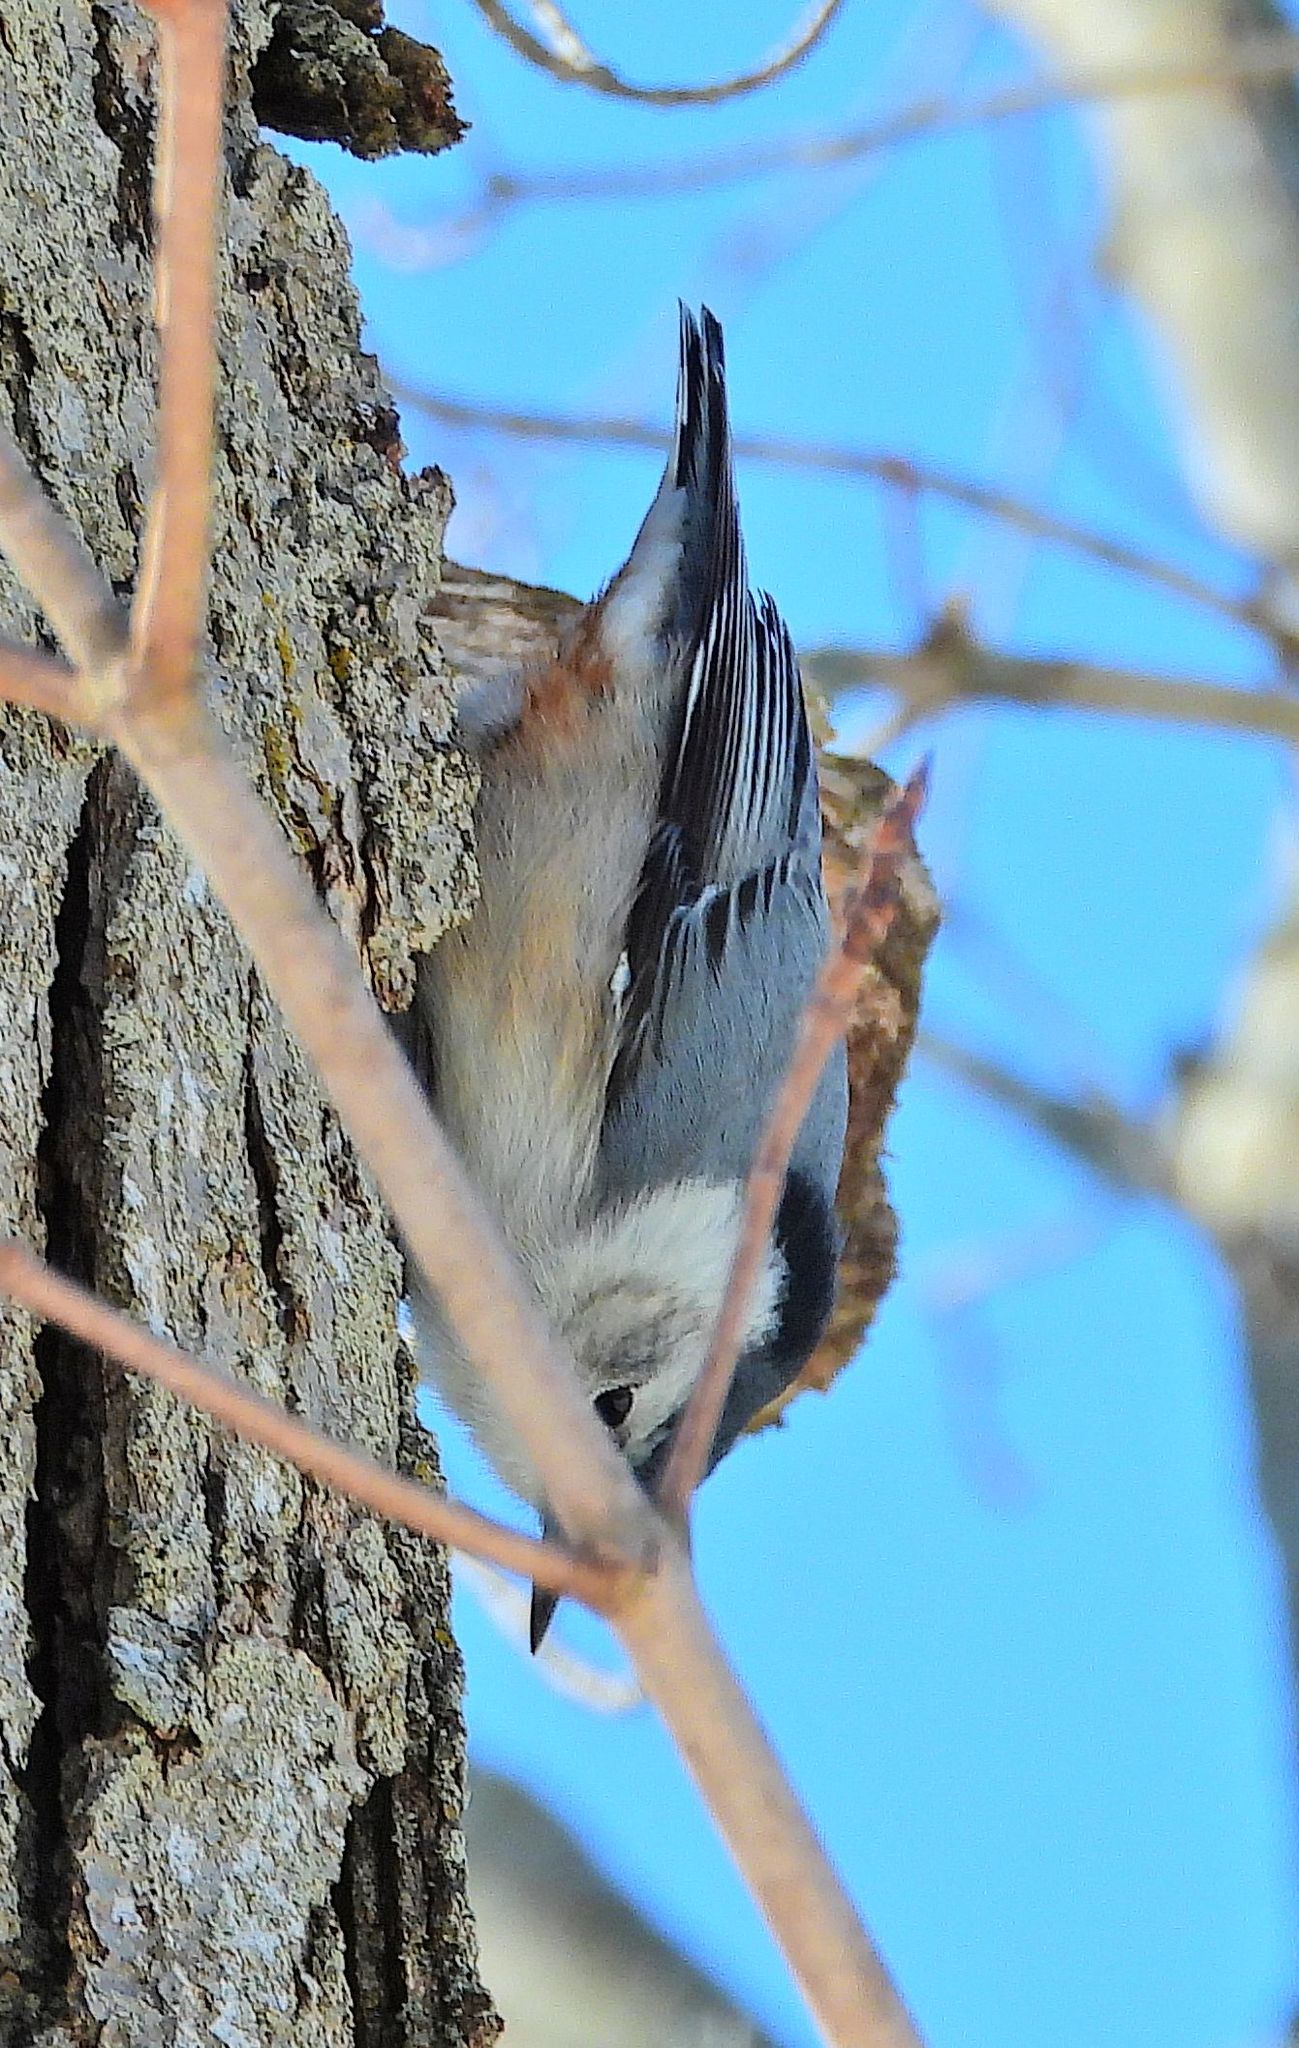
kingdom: Animalia
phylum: Chordata
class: Aves
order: Passeriformes
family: Sittidae
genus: Sitta
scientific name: Sitta carolinensis
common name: White-breasted nuthatch
